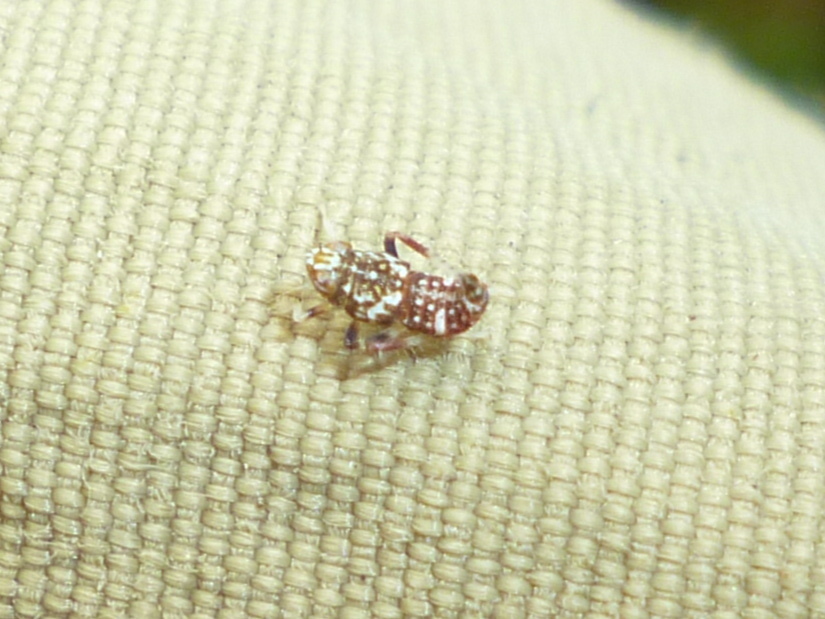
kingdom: Animalia
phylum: Arthropoda
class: Insecta
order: Hemiptera
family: Cicadellidae
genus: Orientus
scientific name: Orientus ishidae
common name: Japanese leafhopper
